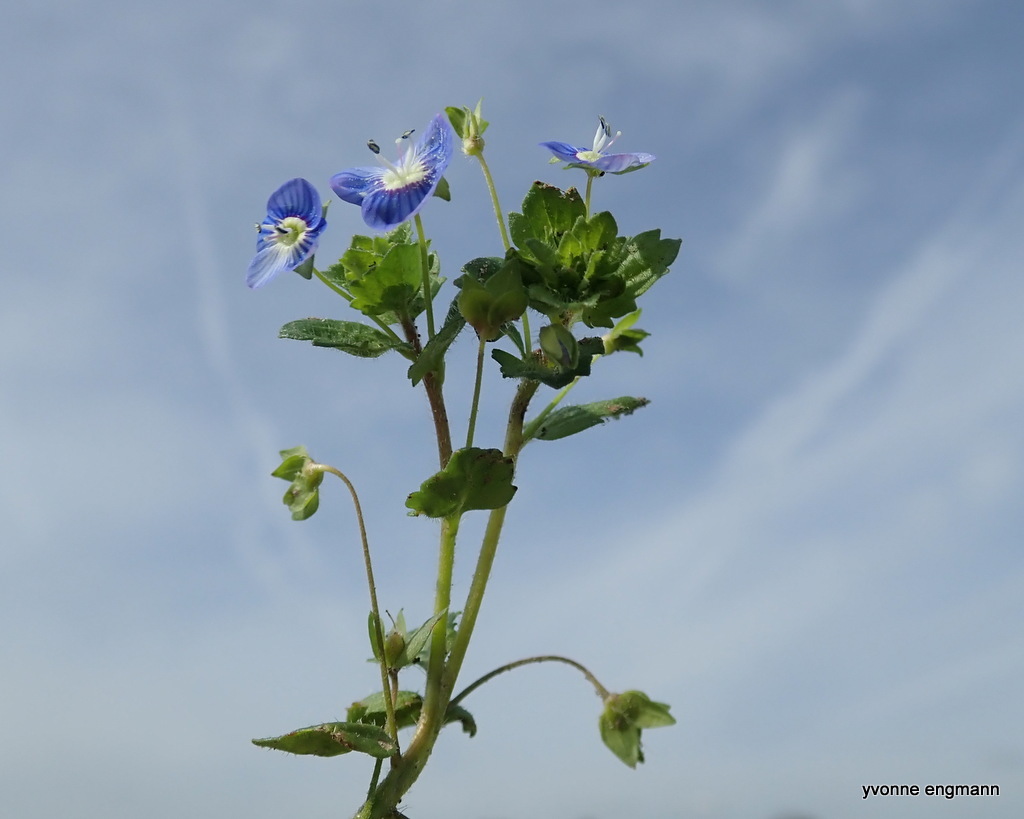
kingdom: Plantae
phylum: Tracheophyta
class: Magnoliopsida
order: Lamiales
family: Plantaginaceae
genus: Veronica
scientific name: Veronica persica
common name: Common field-speedwell
